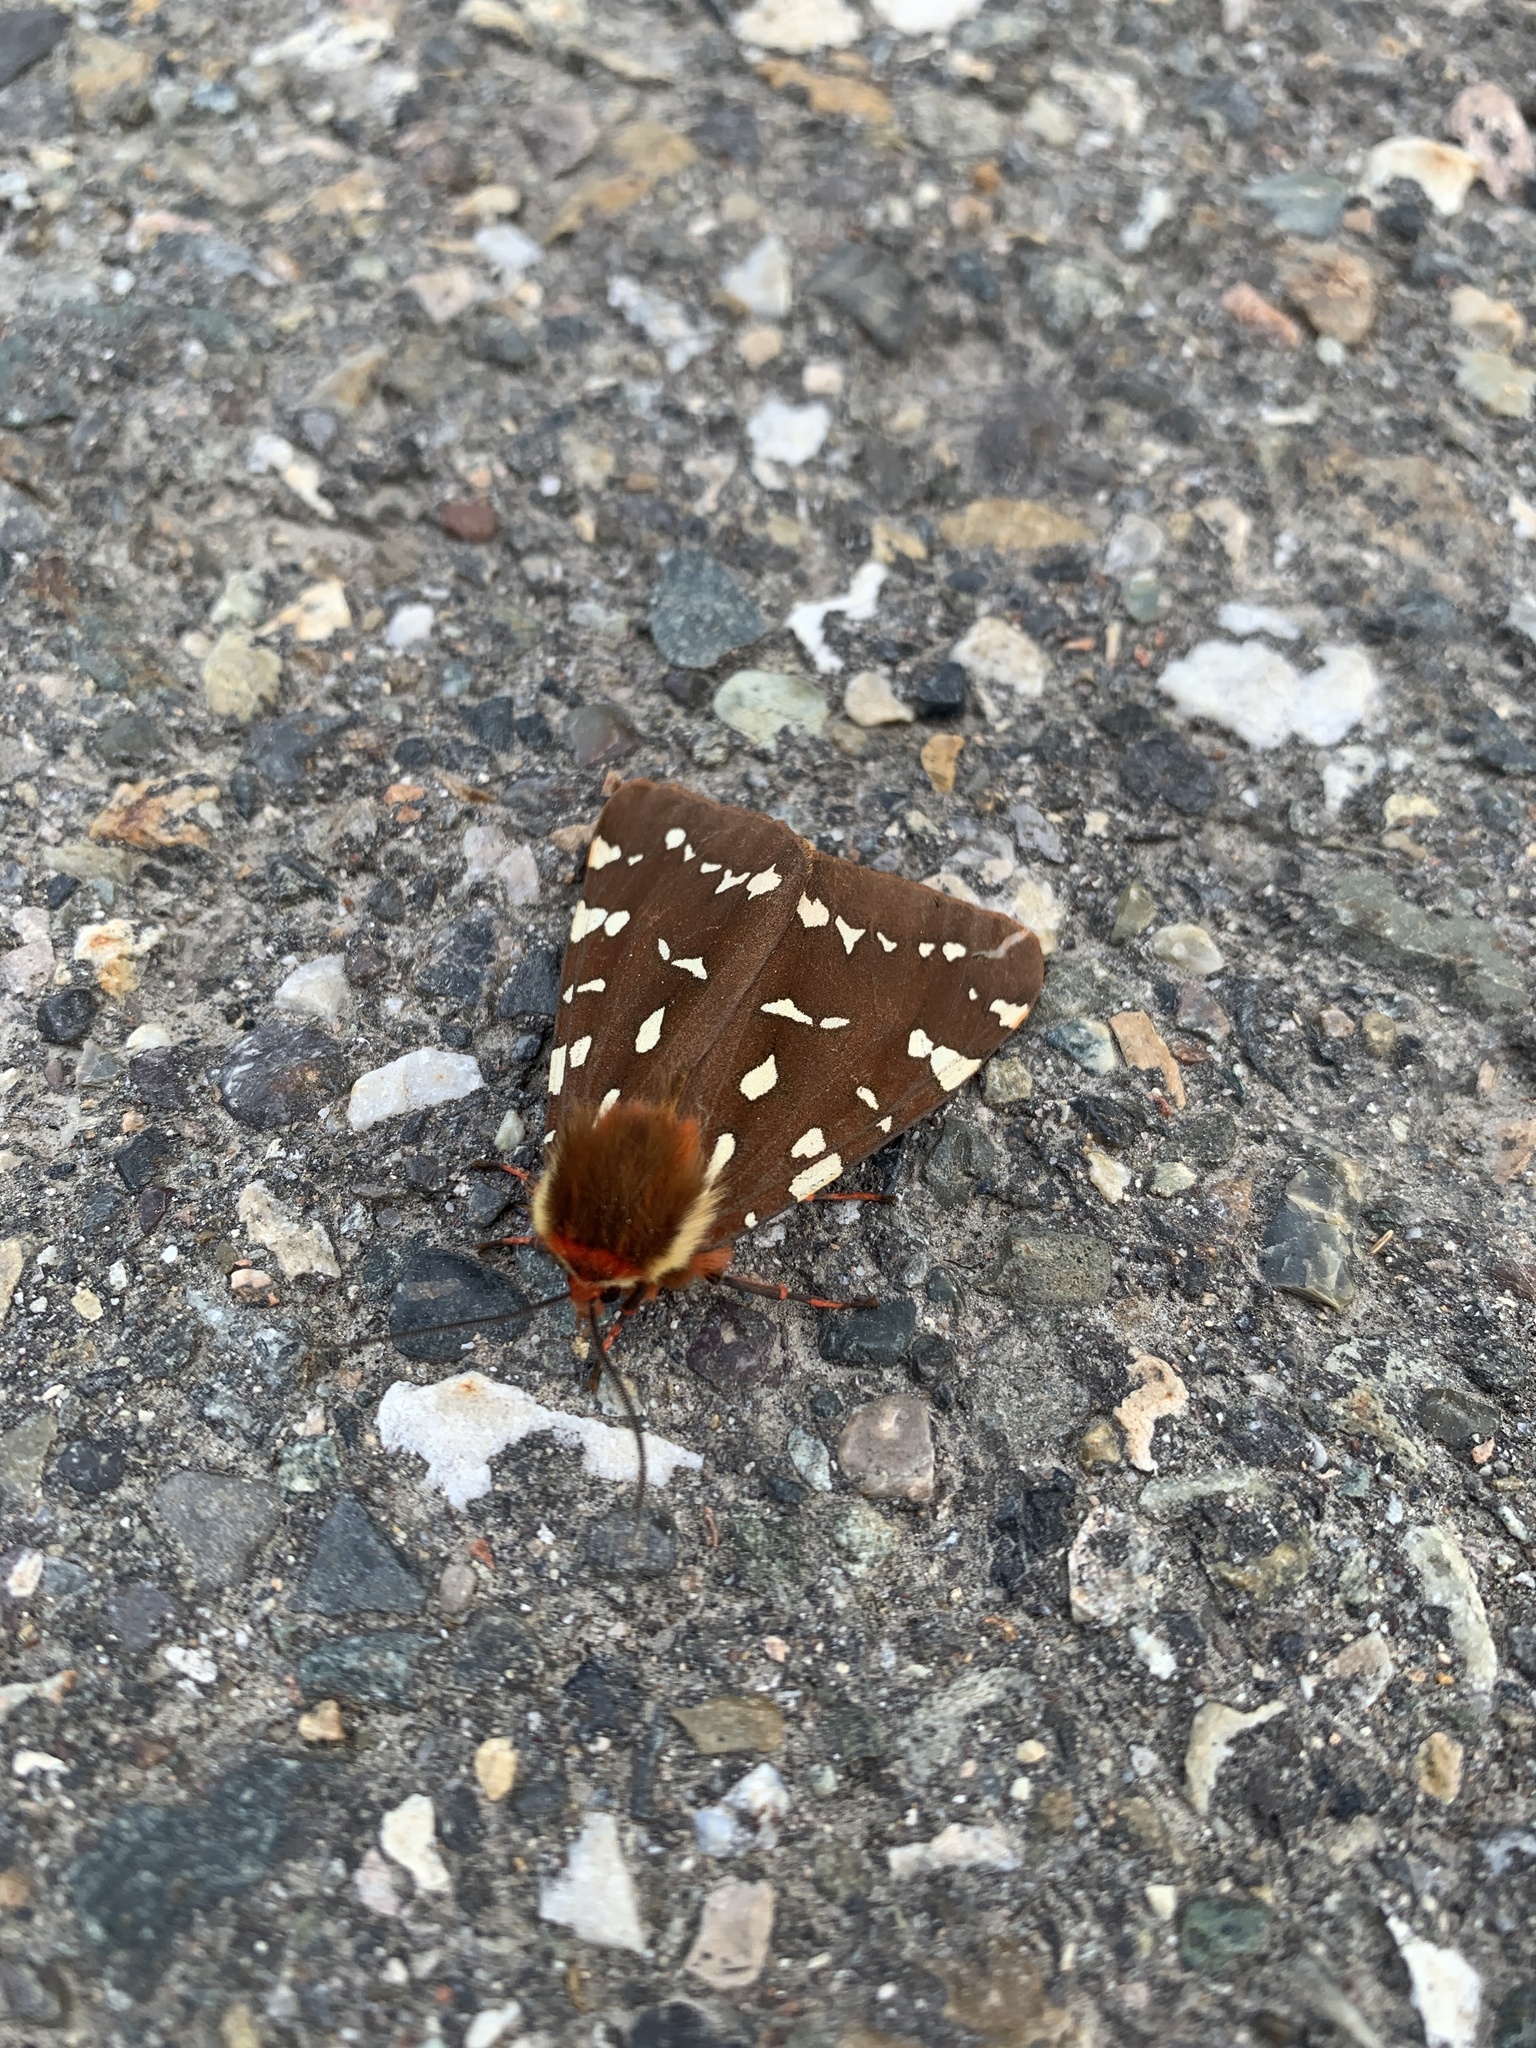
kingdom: Animalia
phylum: Arthropoda
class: Insecta
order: Lepidoptera
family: Erebidae
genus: Arctia
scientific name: Arctia parthenos
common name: St. lawrence tiger moth
